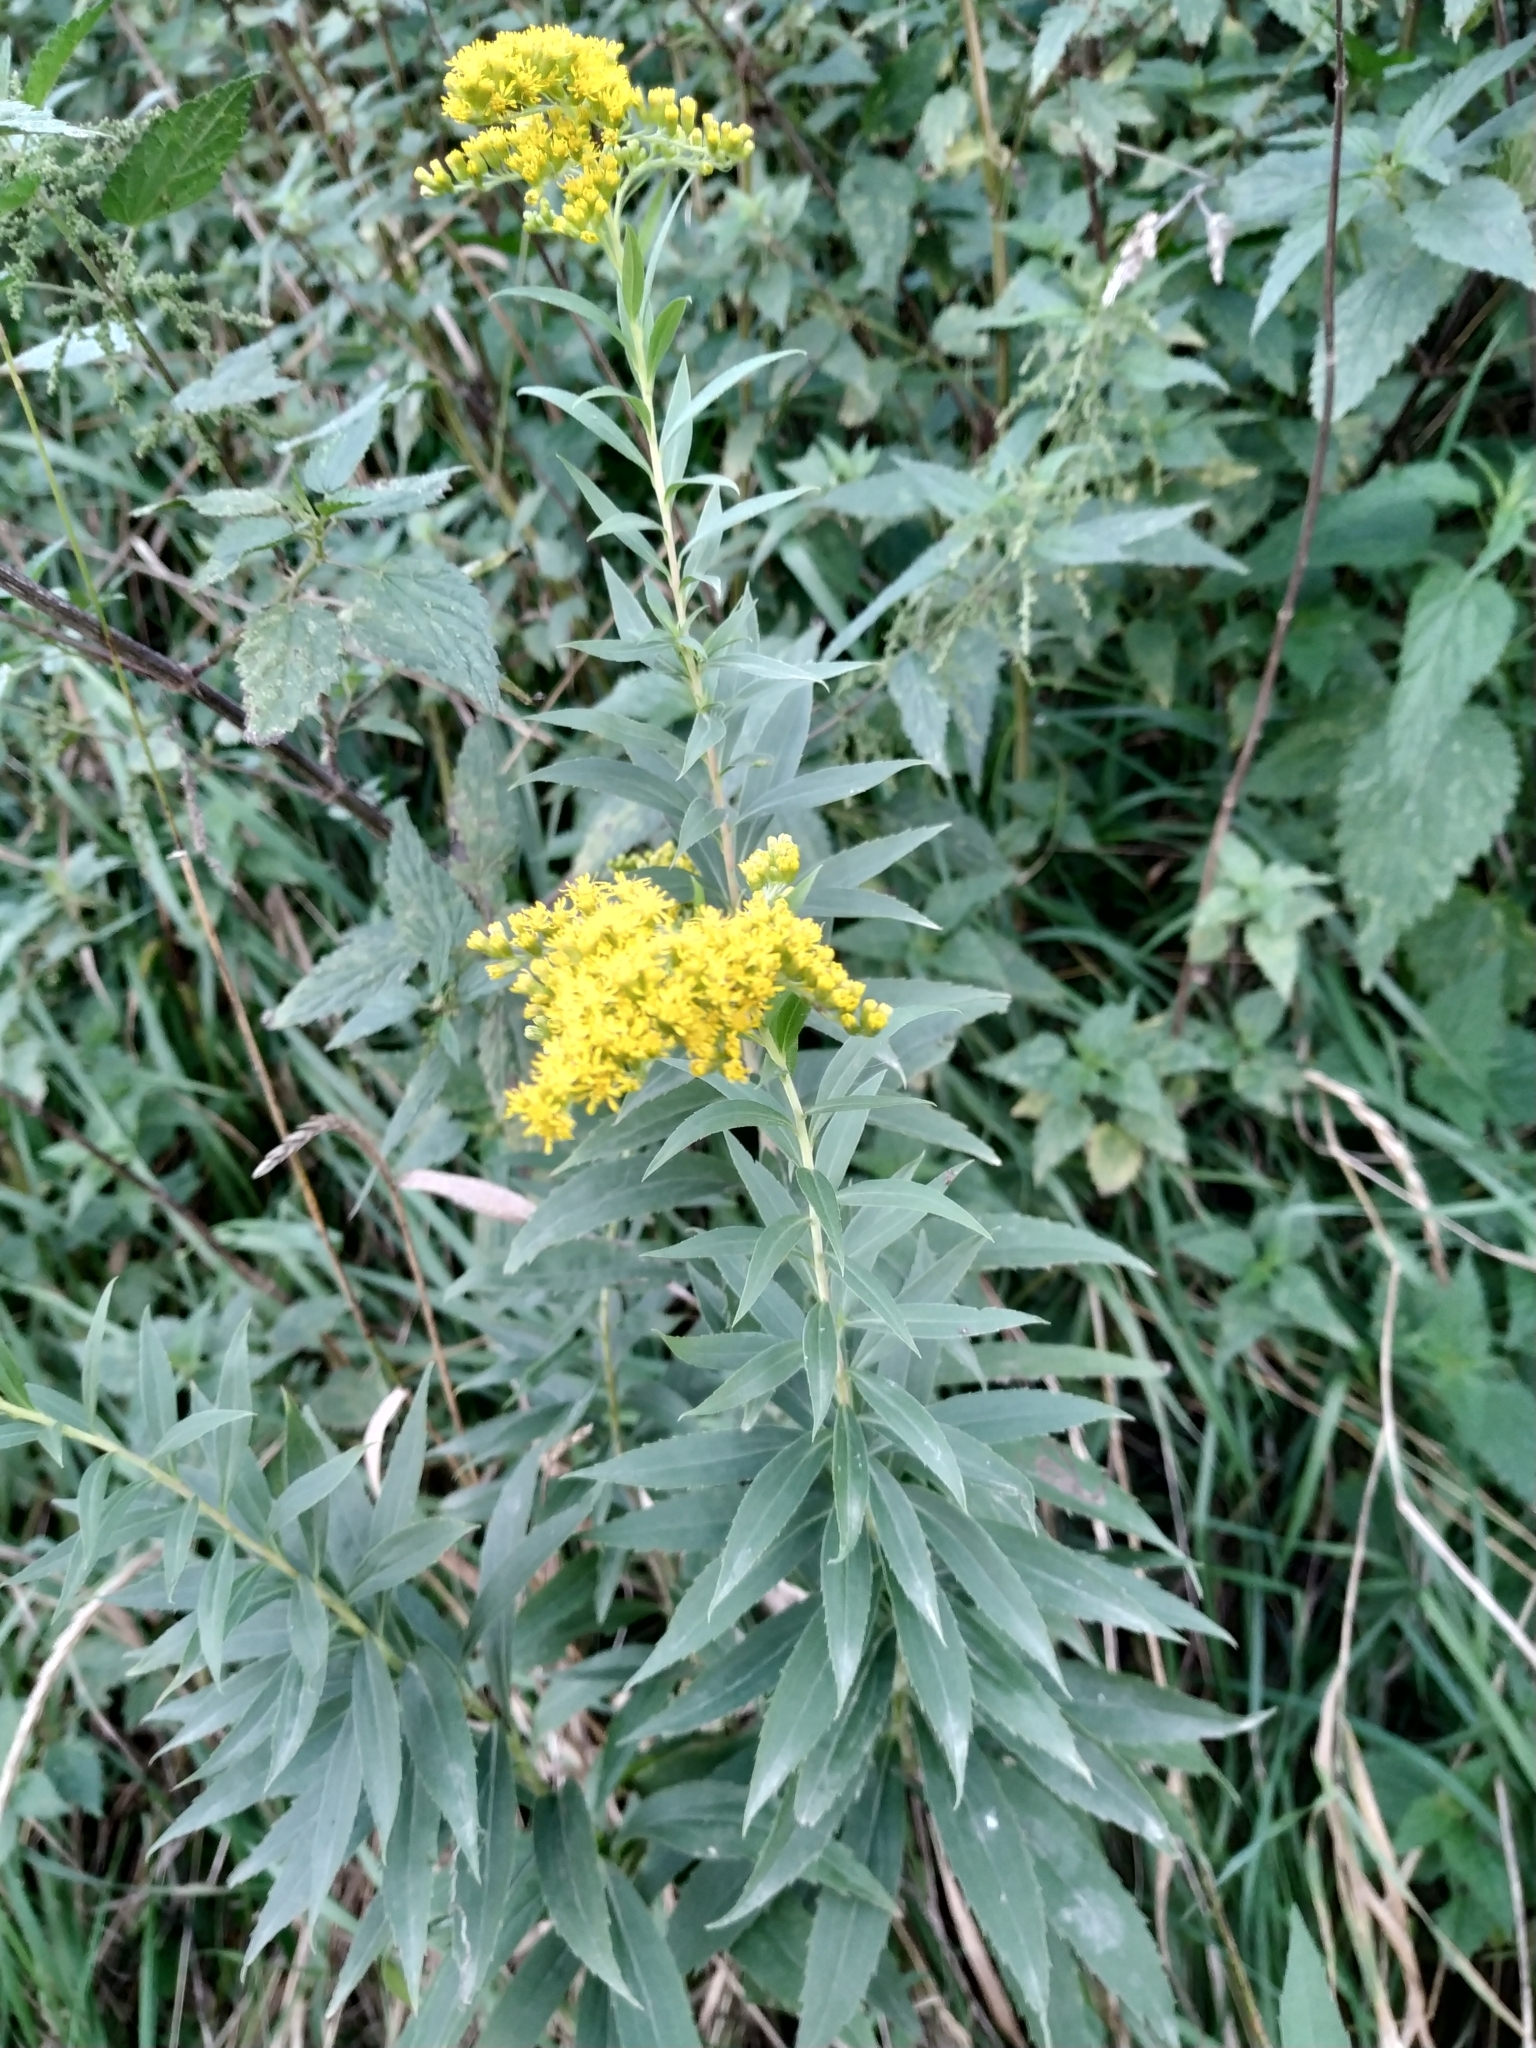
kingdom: Plantae
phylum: Tracheophyta
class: Magnoliopsida
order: Asterales
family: Asteraceae
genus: Solidago
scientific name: Solidago gigantea
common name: Giant goldenrod
